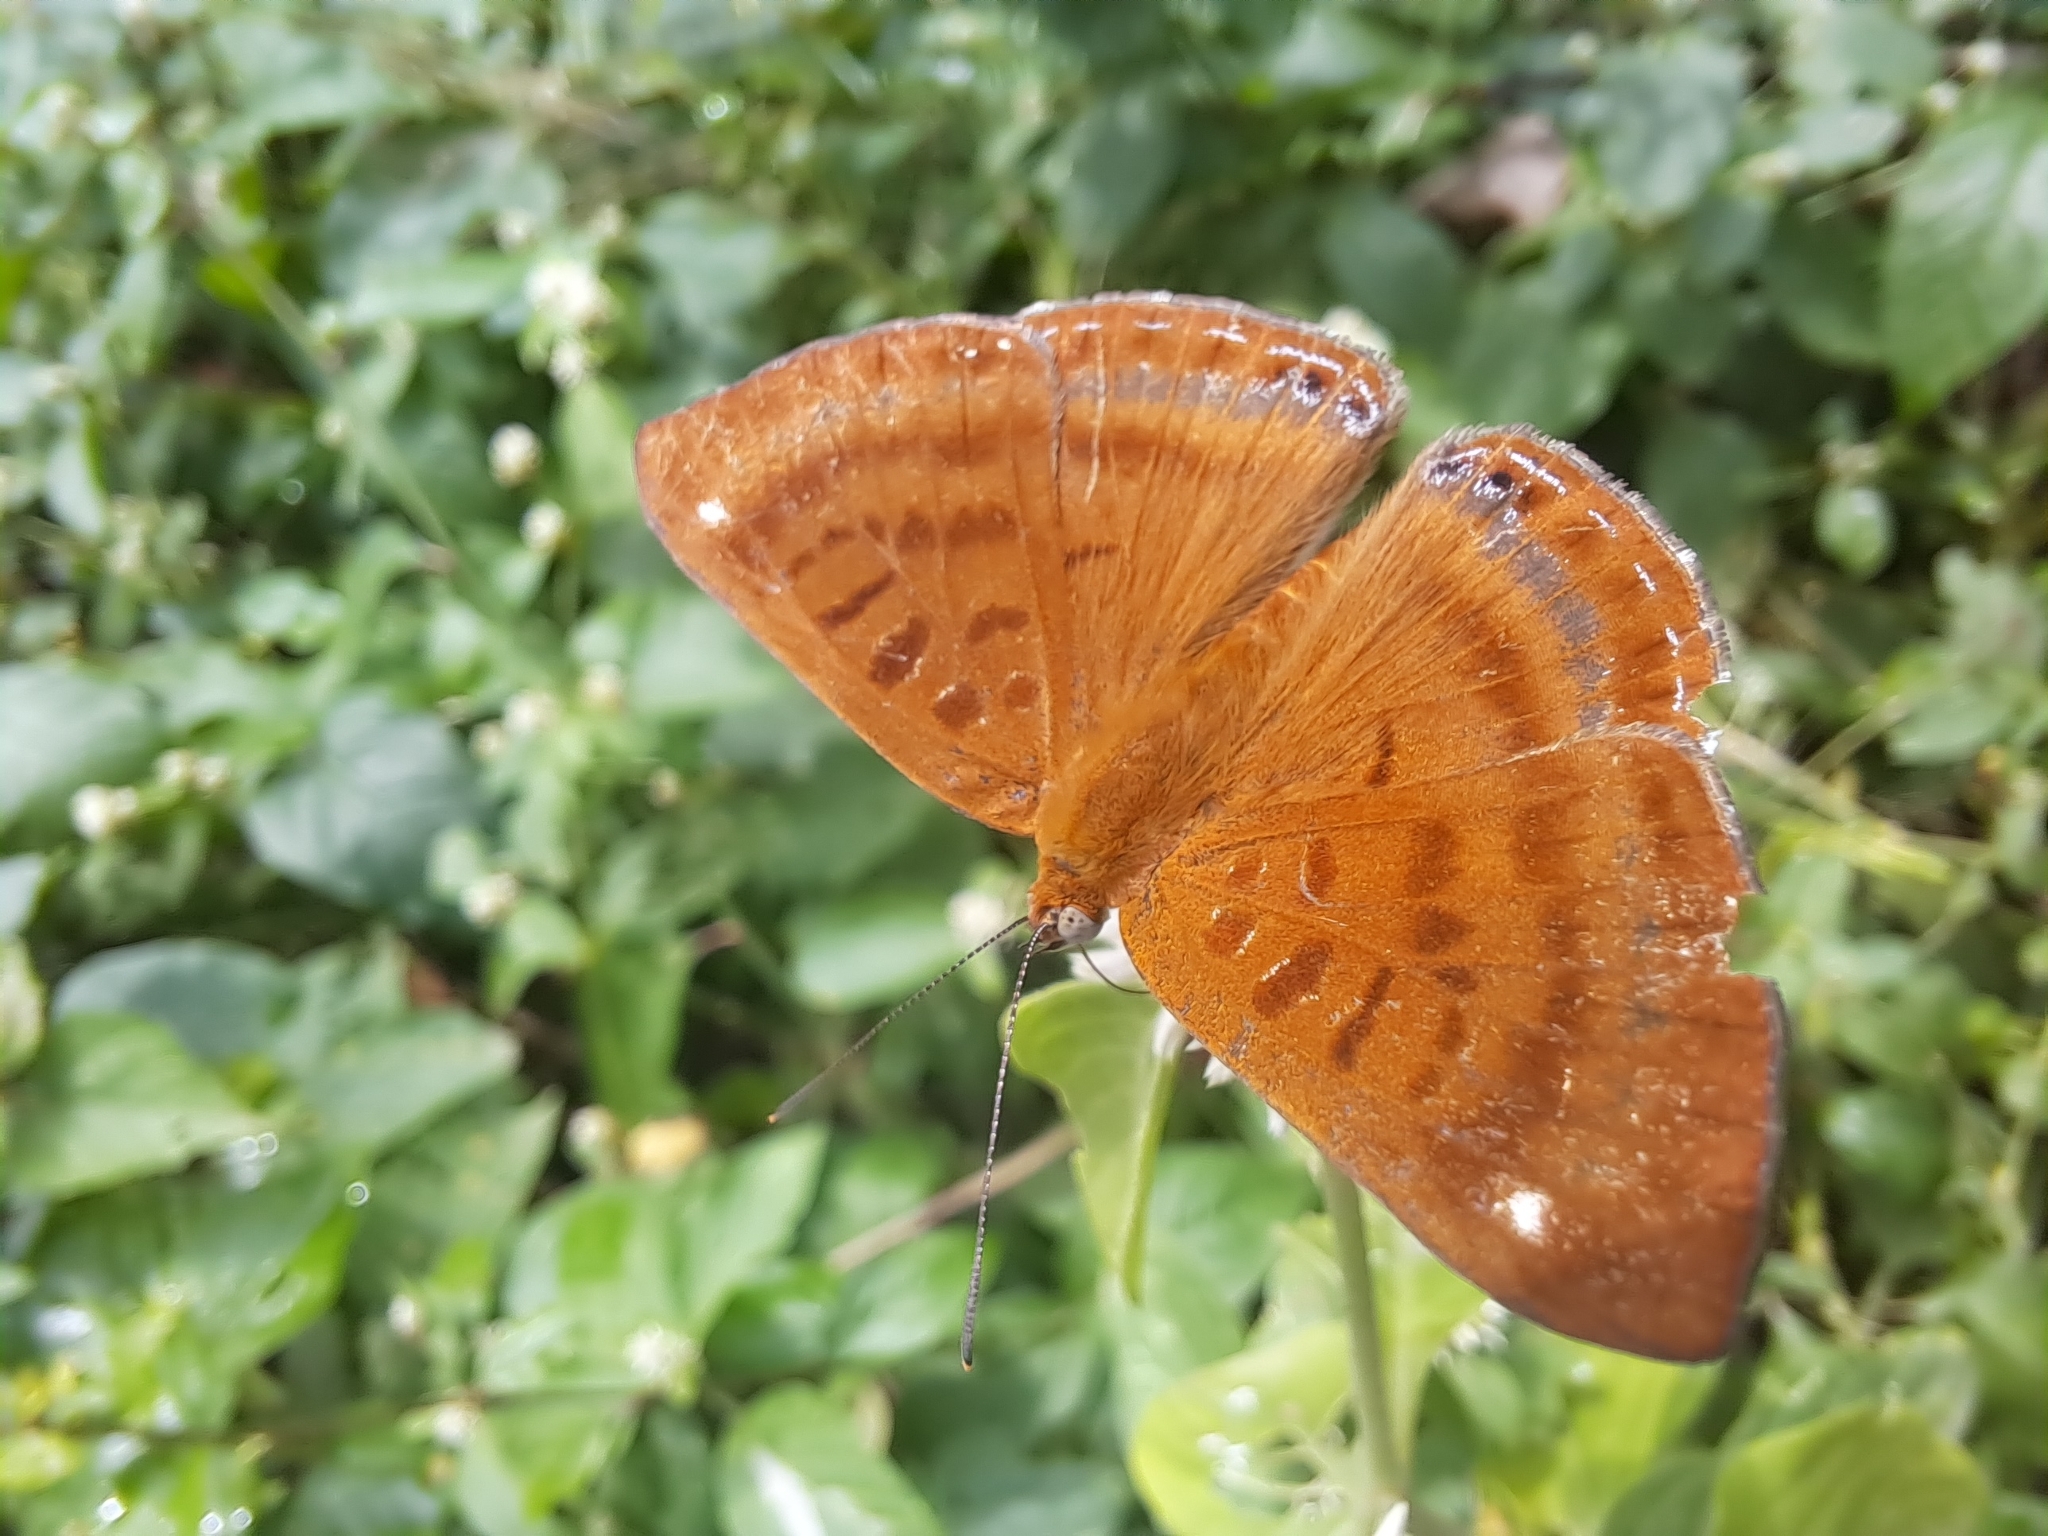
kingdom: Animalia
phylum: Arthropoda
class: Insecta
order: Lepidoptera
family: Riodinidae
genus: Synargis
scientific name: Synargis mycone
